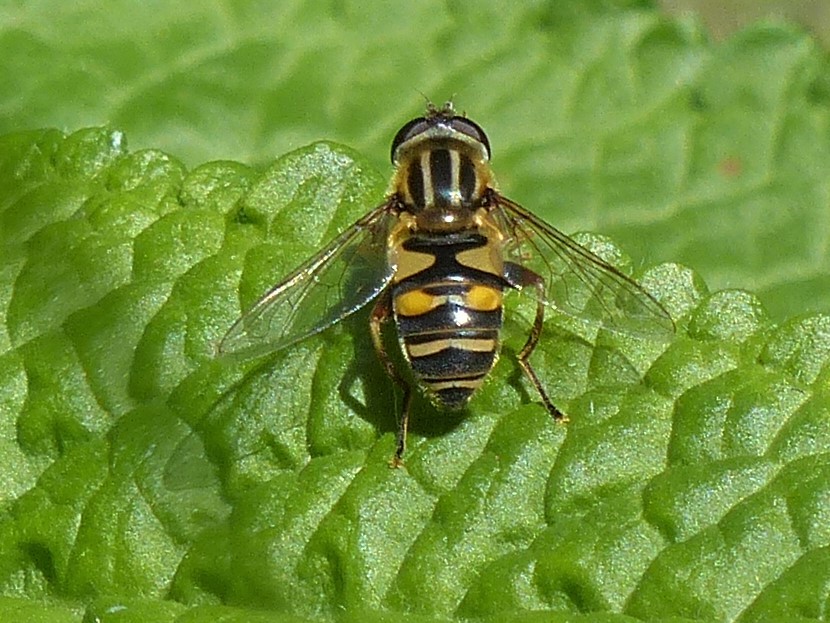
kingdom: Animalia
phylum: Arthropoda
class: Insecta
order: Diptera
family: Syrphidae
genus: Helophilus
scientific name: Helophilus fasciatus
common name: Narrow-headed marsh fly
